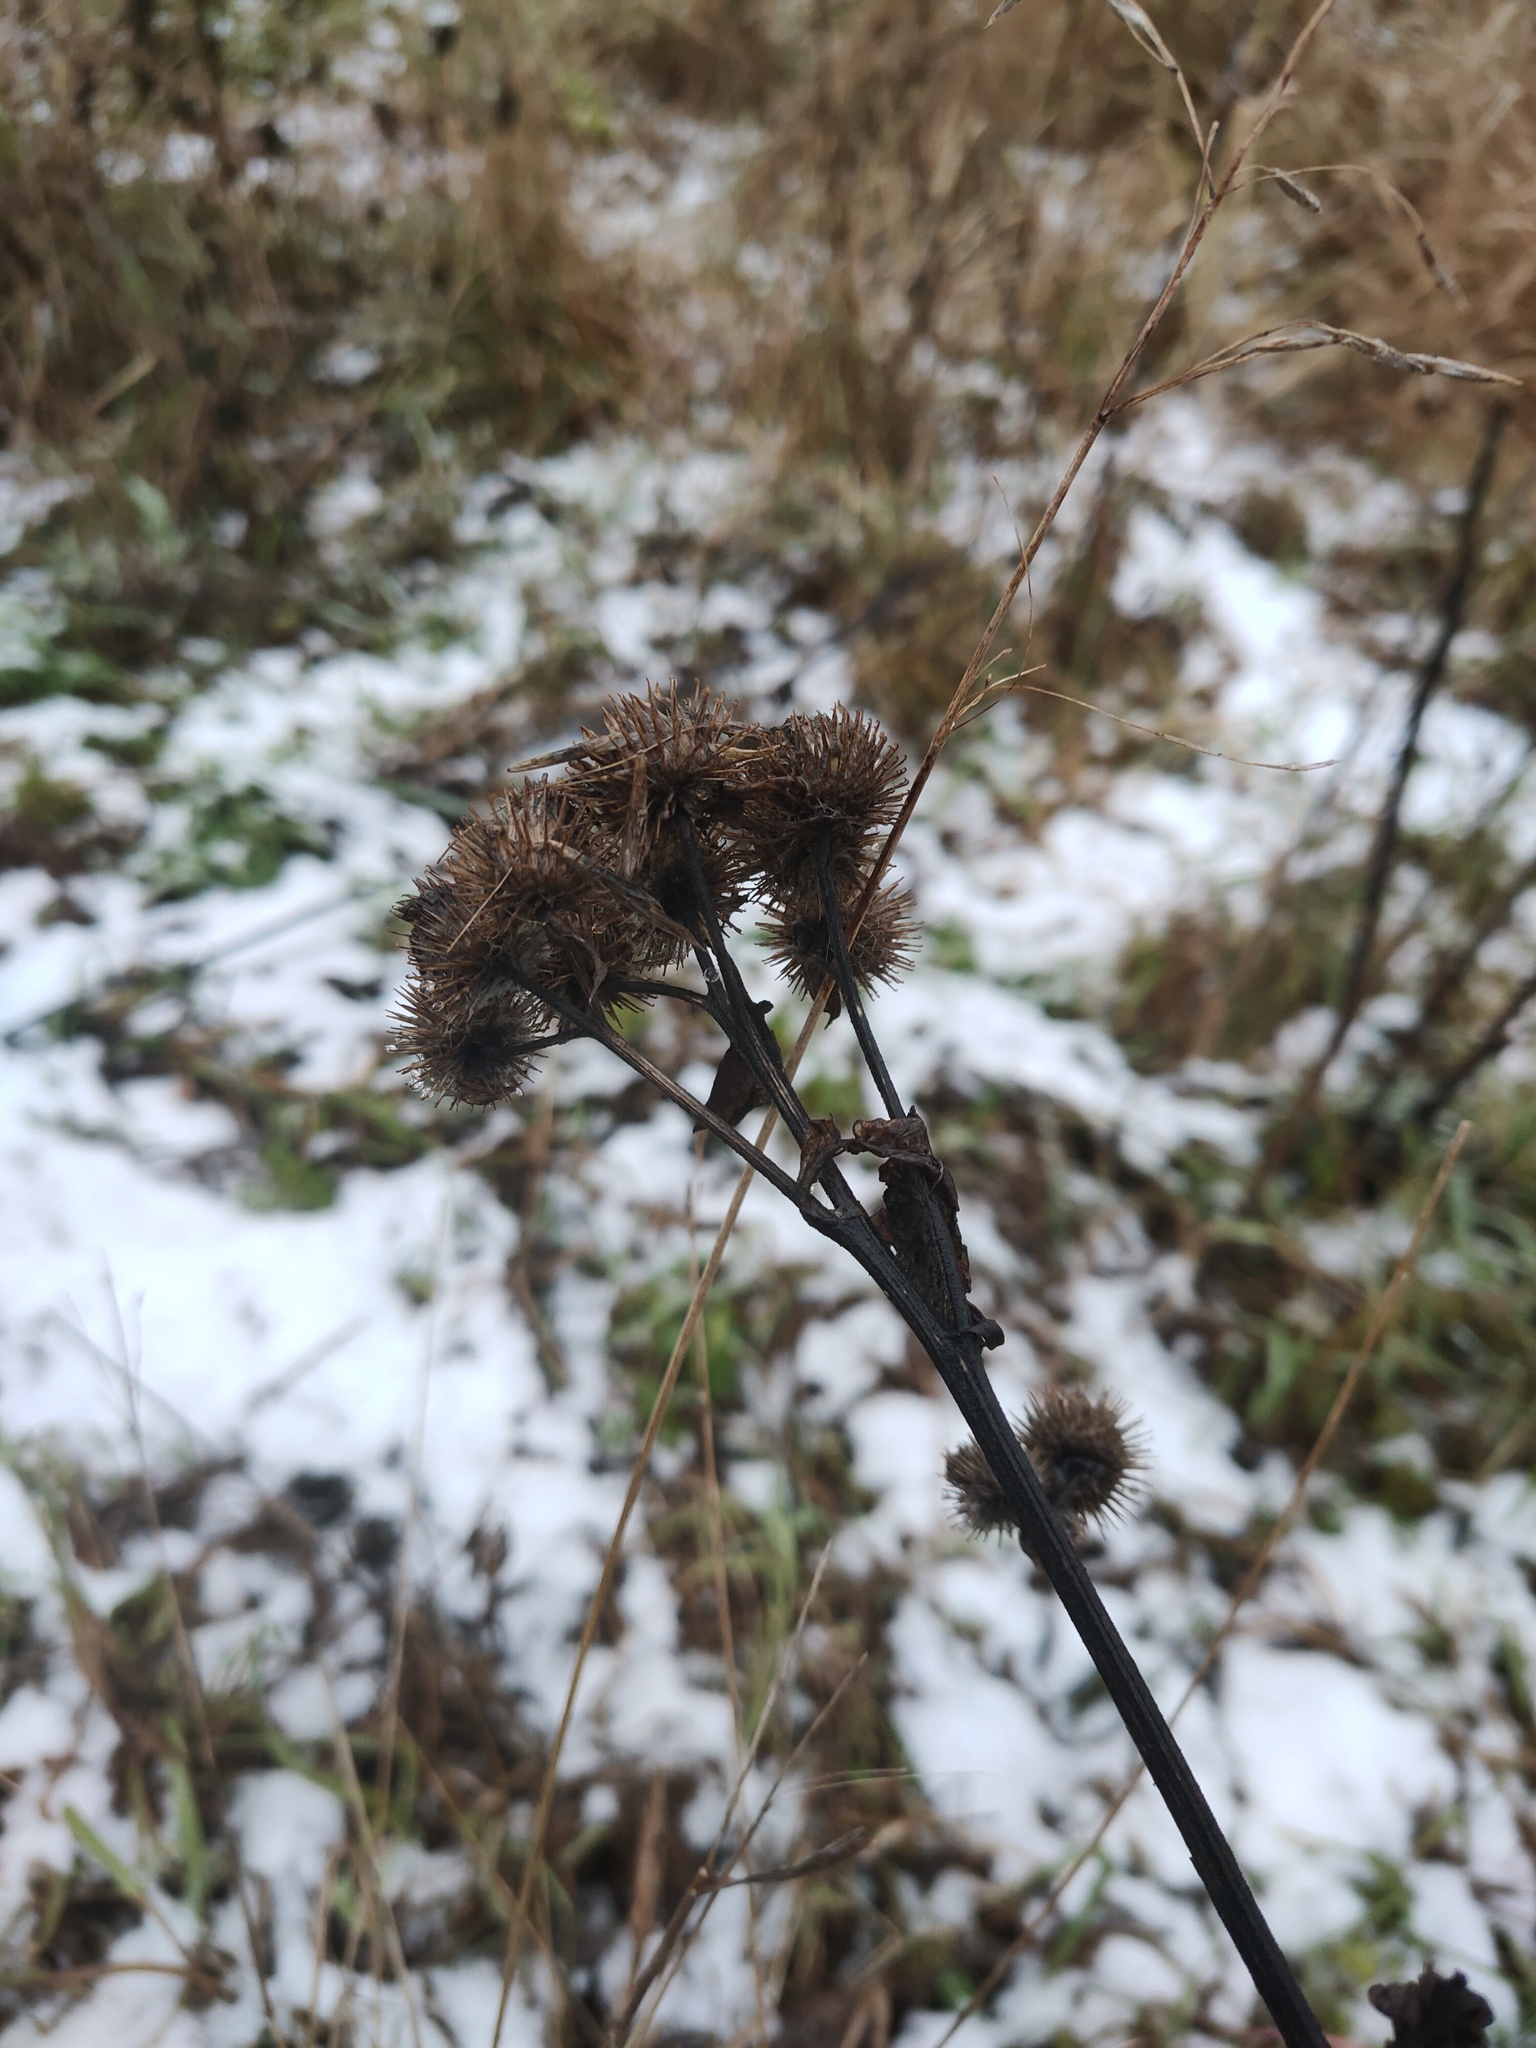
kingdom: Plantae
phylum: Tracheophyta
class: Magnoliopsida
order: Asterales
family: Asteraceae
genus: Arctium
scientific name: Arctium tomentosum
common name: Woolly burdock
